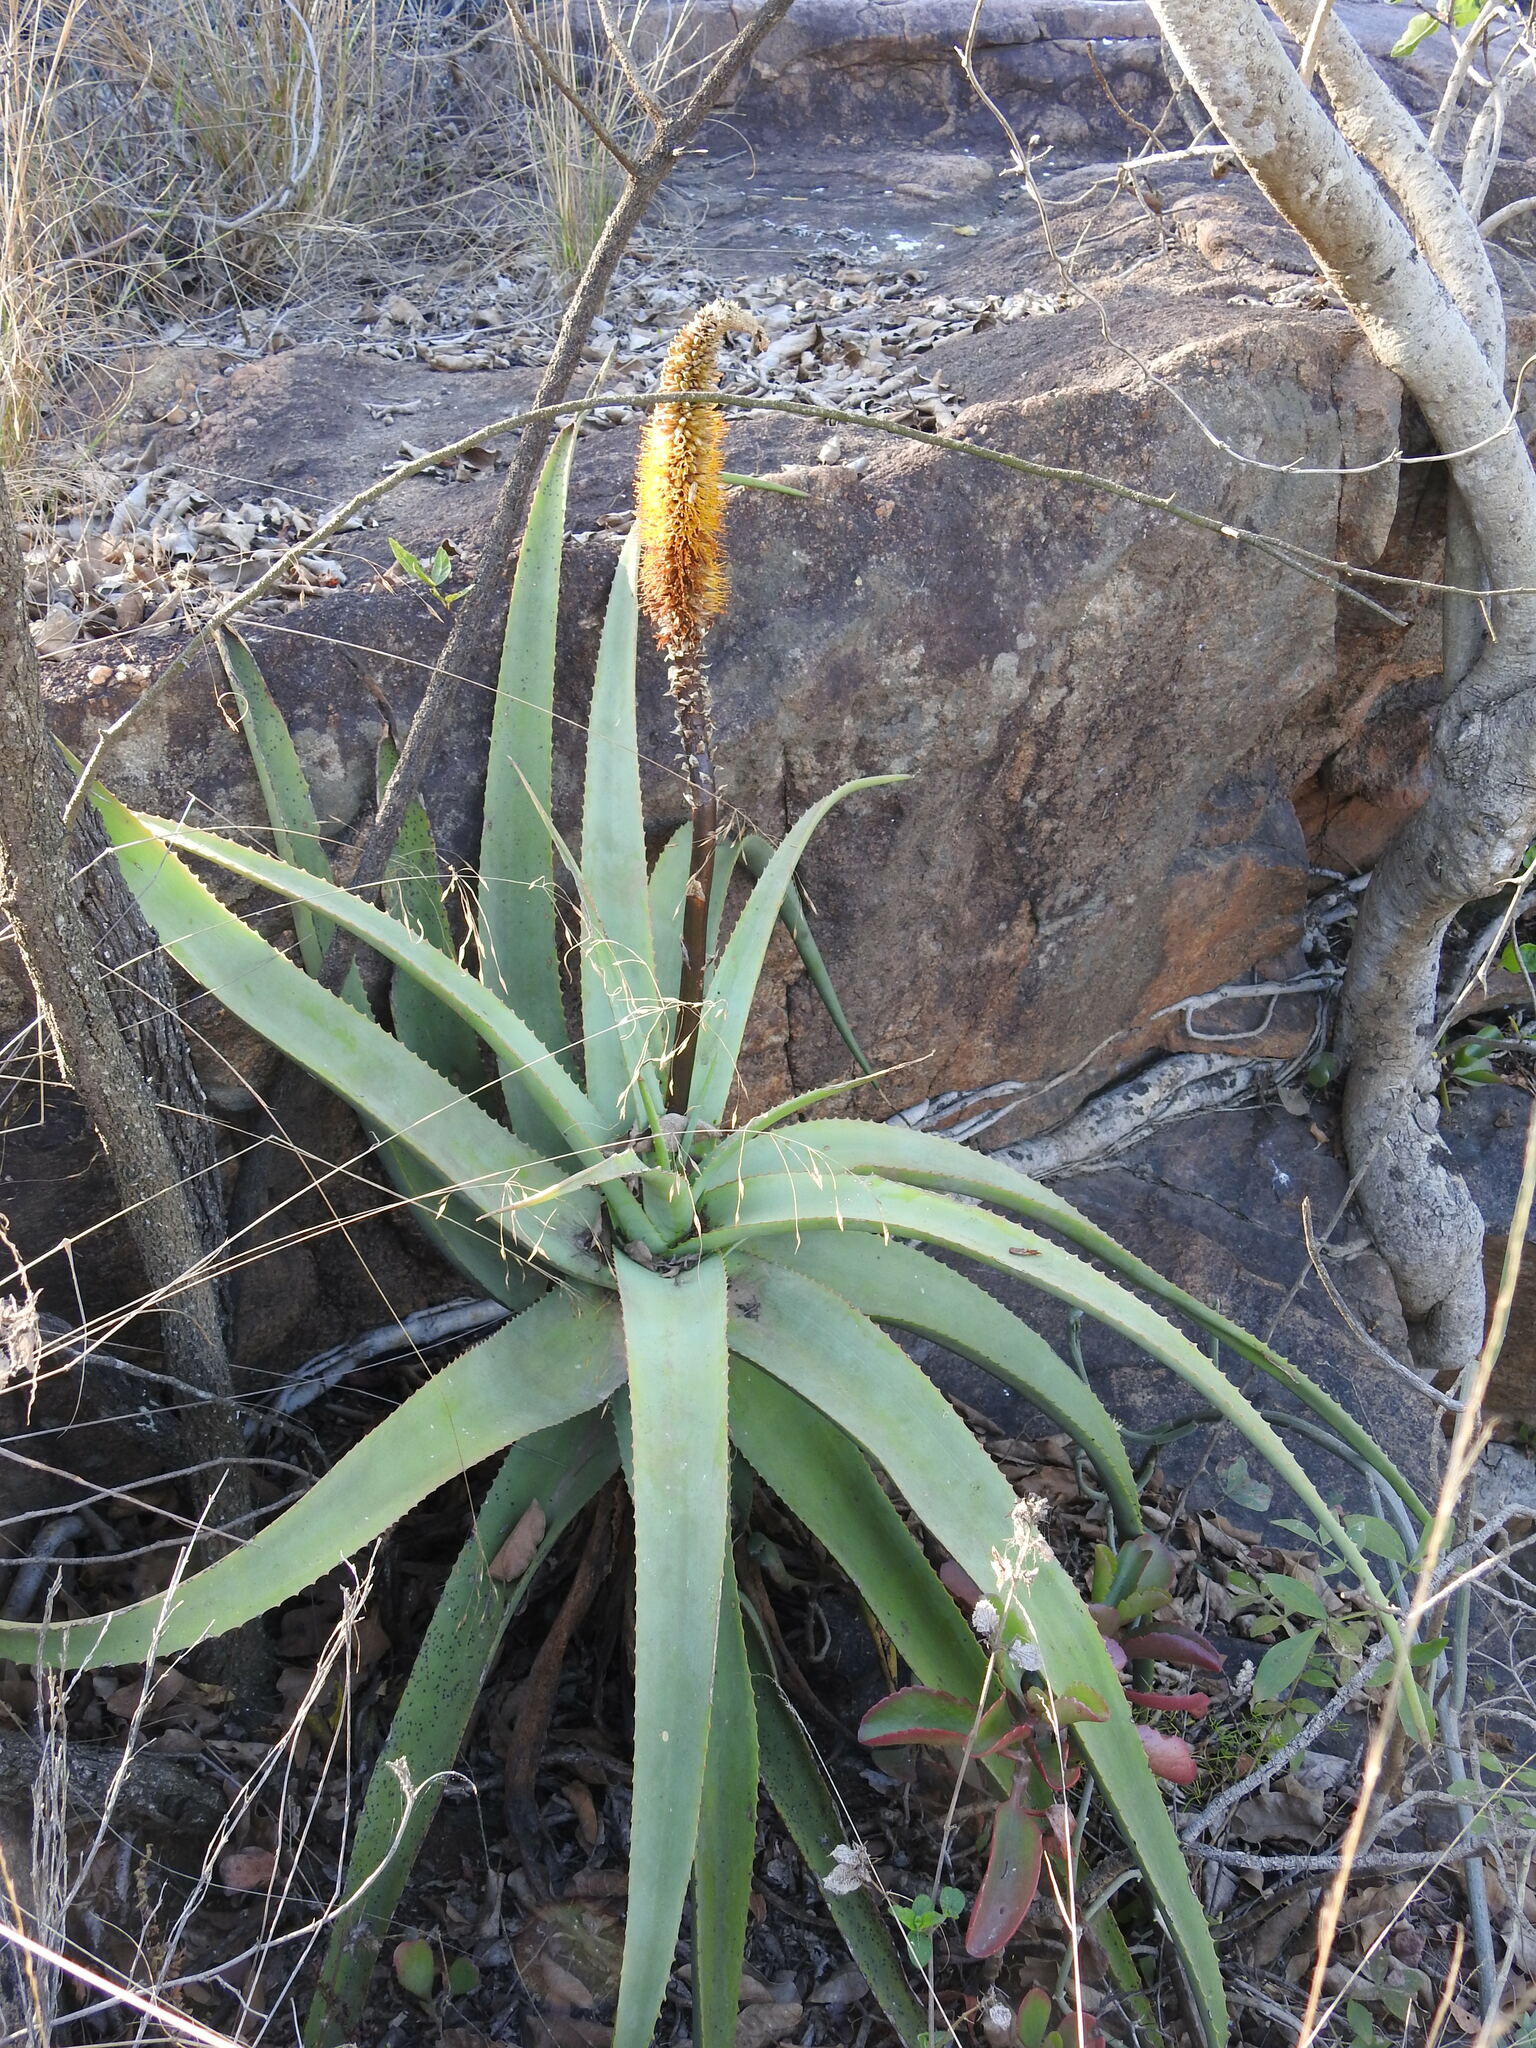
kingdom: Plantae
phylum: Tracheophyta
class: Liliopsida
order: Asparagales
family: Asphodelaceae
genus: Aloe
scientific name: Aloe spicata
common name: Gazaland aloe
